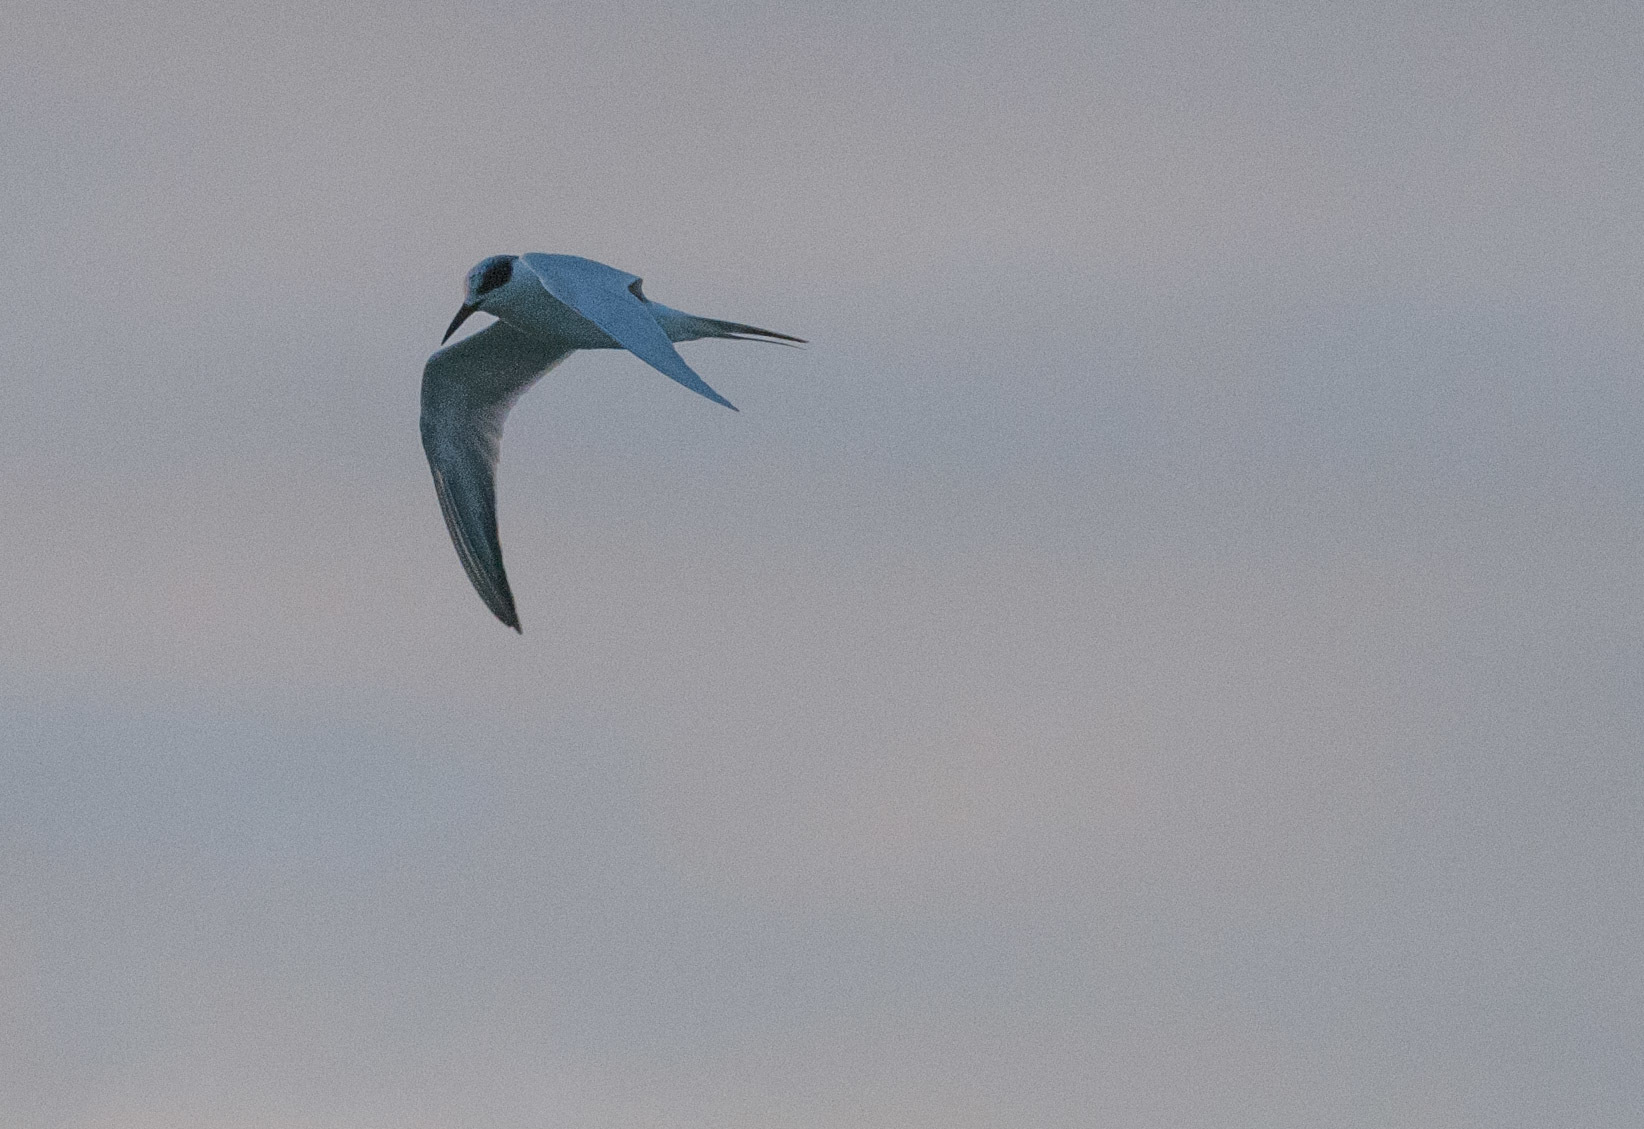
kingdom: Animalia
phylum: Chordata
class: Aves
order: Charadriiformes
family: Laridae
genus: Sterna
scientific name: Sterna forsteri
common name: Forster's tern
